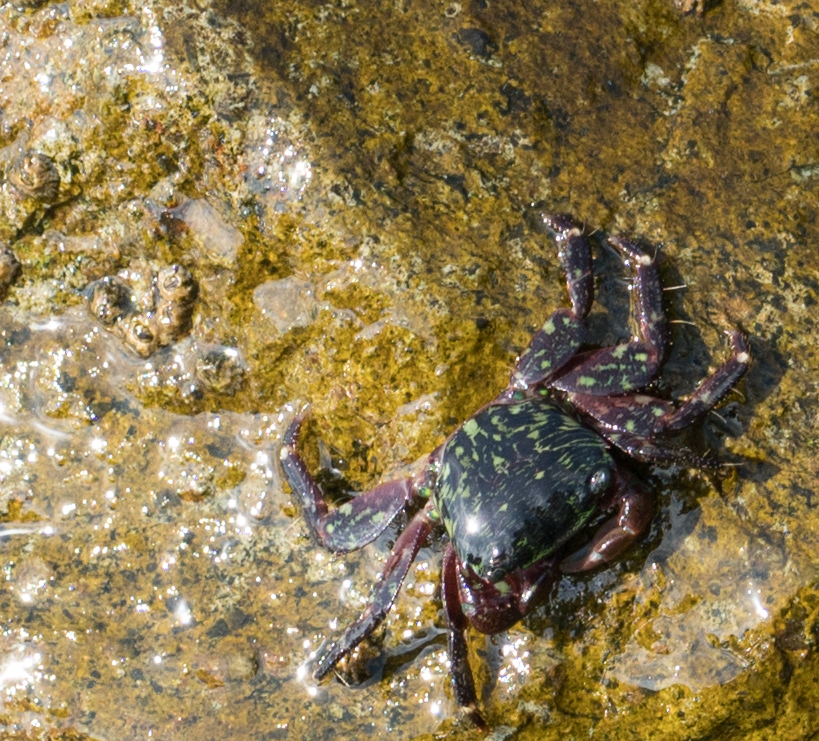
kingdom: Animalia
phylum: Arthropoda
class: Malacostraca
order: Decapoda
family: Grapsidae
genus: Pachygrapsus
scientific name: Pachygrapsus crassipes
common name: Striped shore crab
